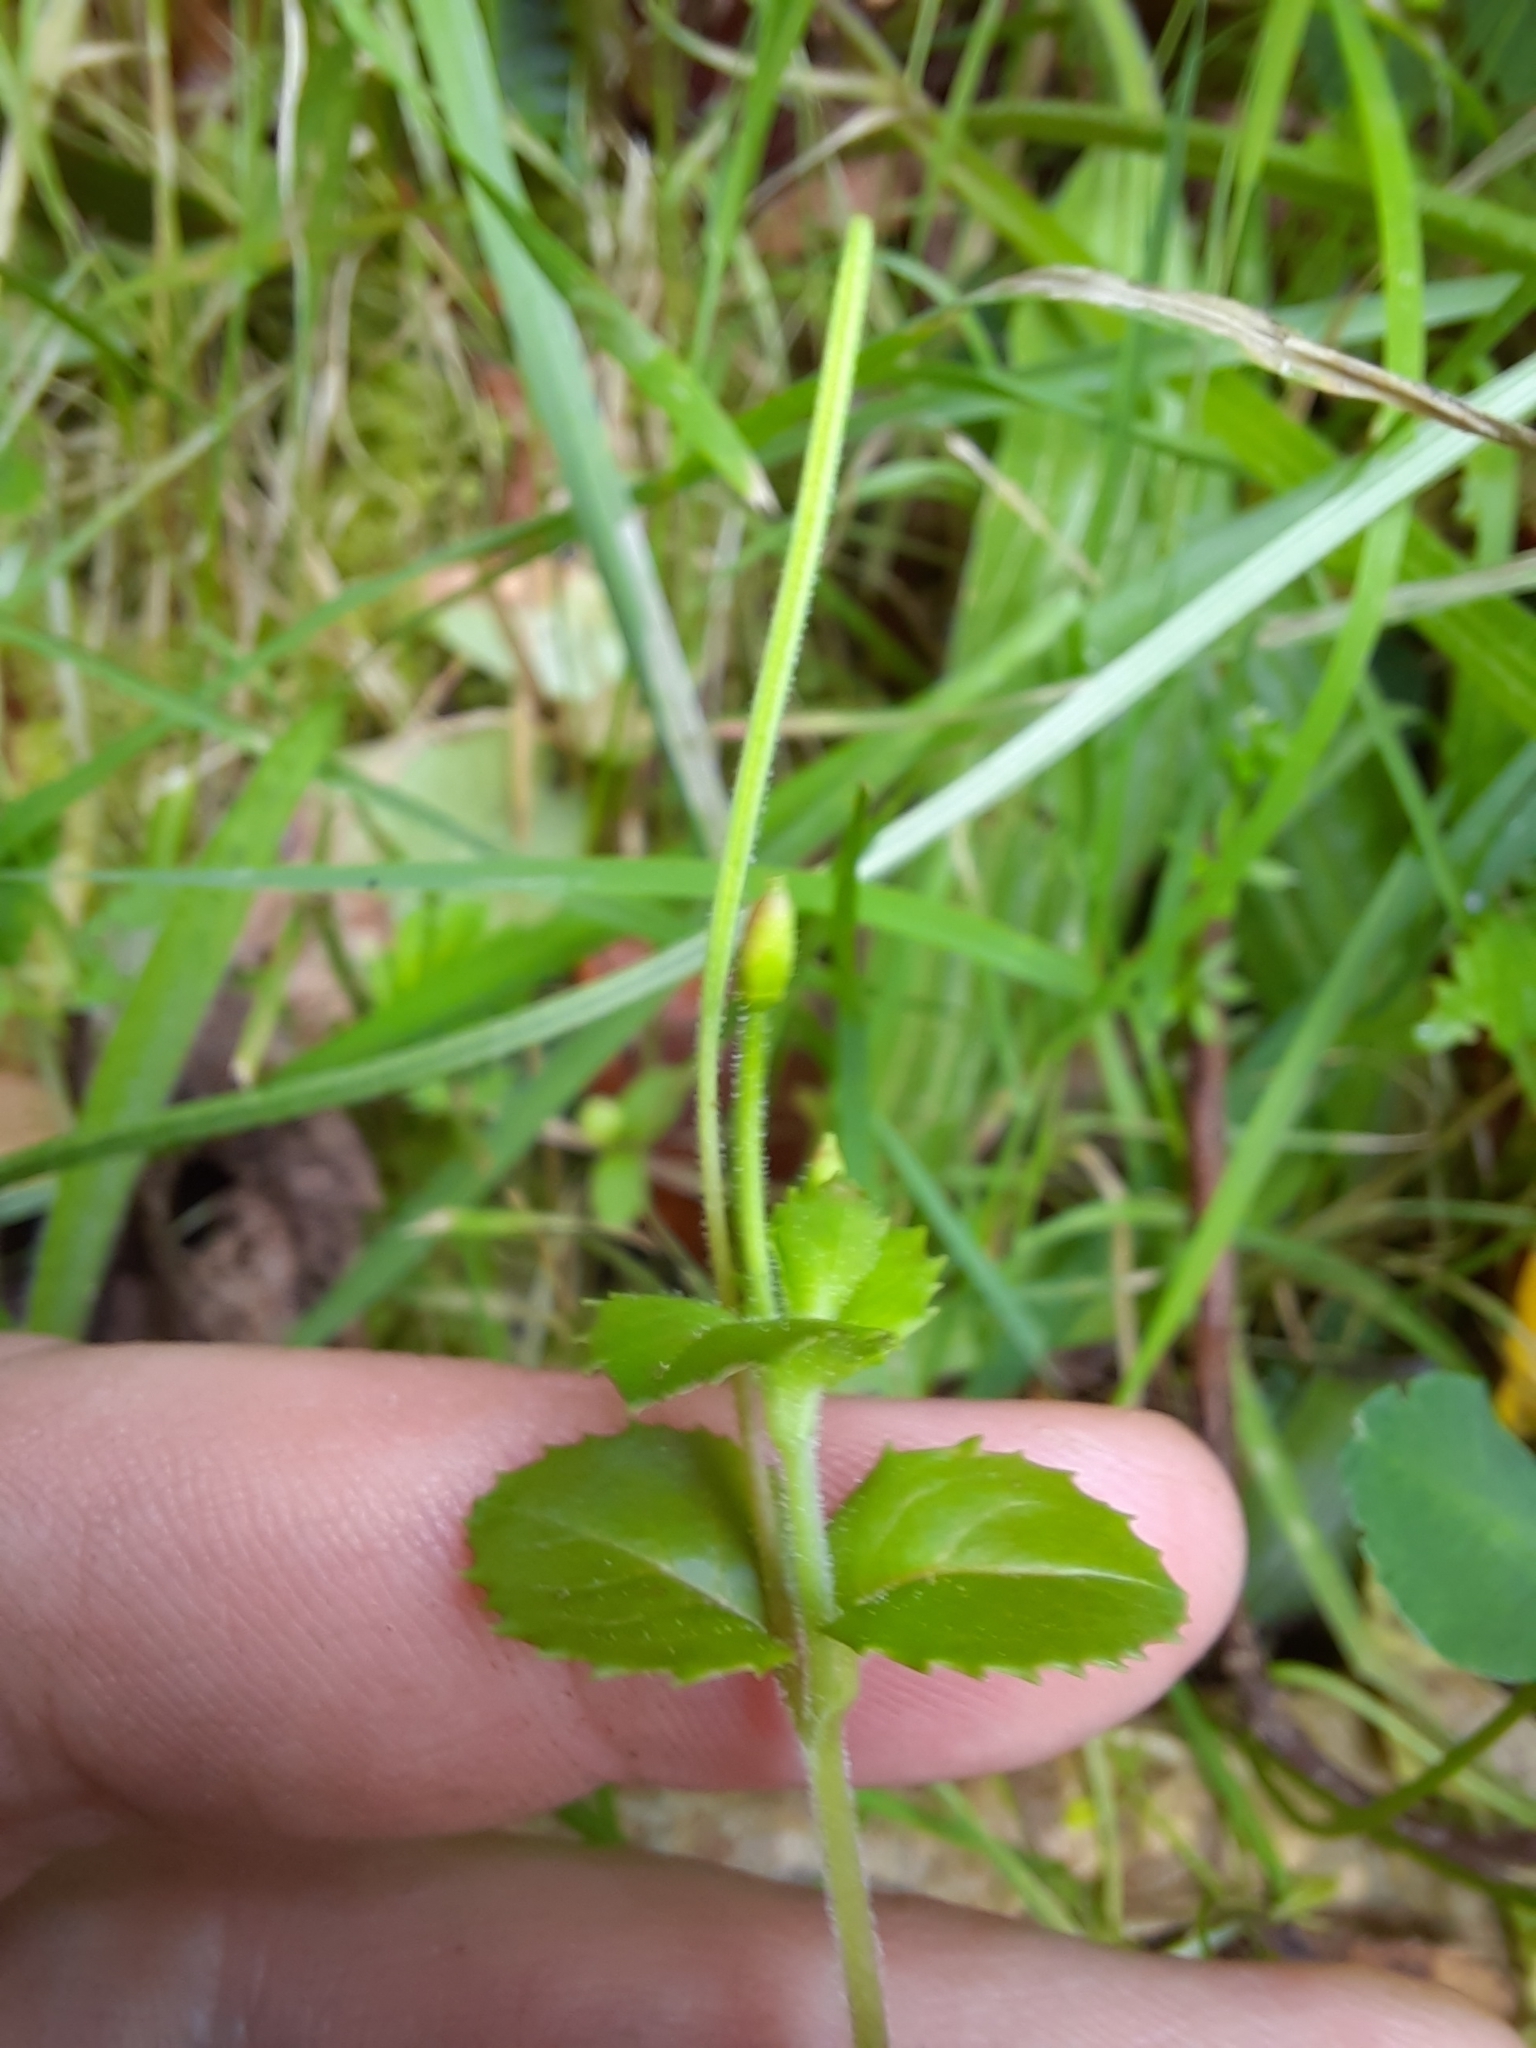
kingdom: Plantae
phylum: Tracheophyta
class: Magnoliopsida
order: Myrtales
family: Onagraceae
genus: Epilobium
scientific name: Epilobium rotundifolium
